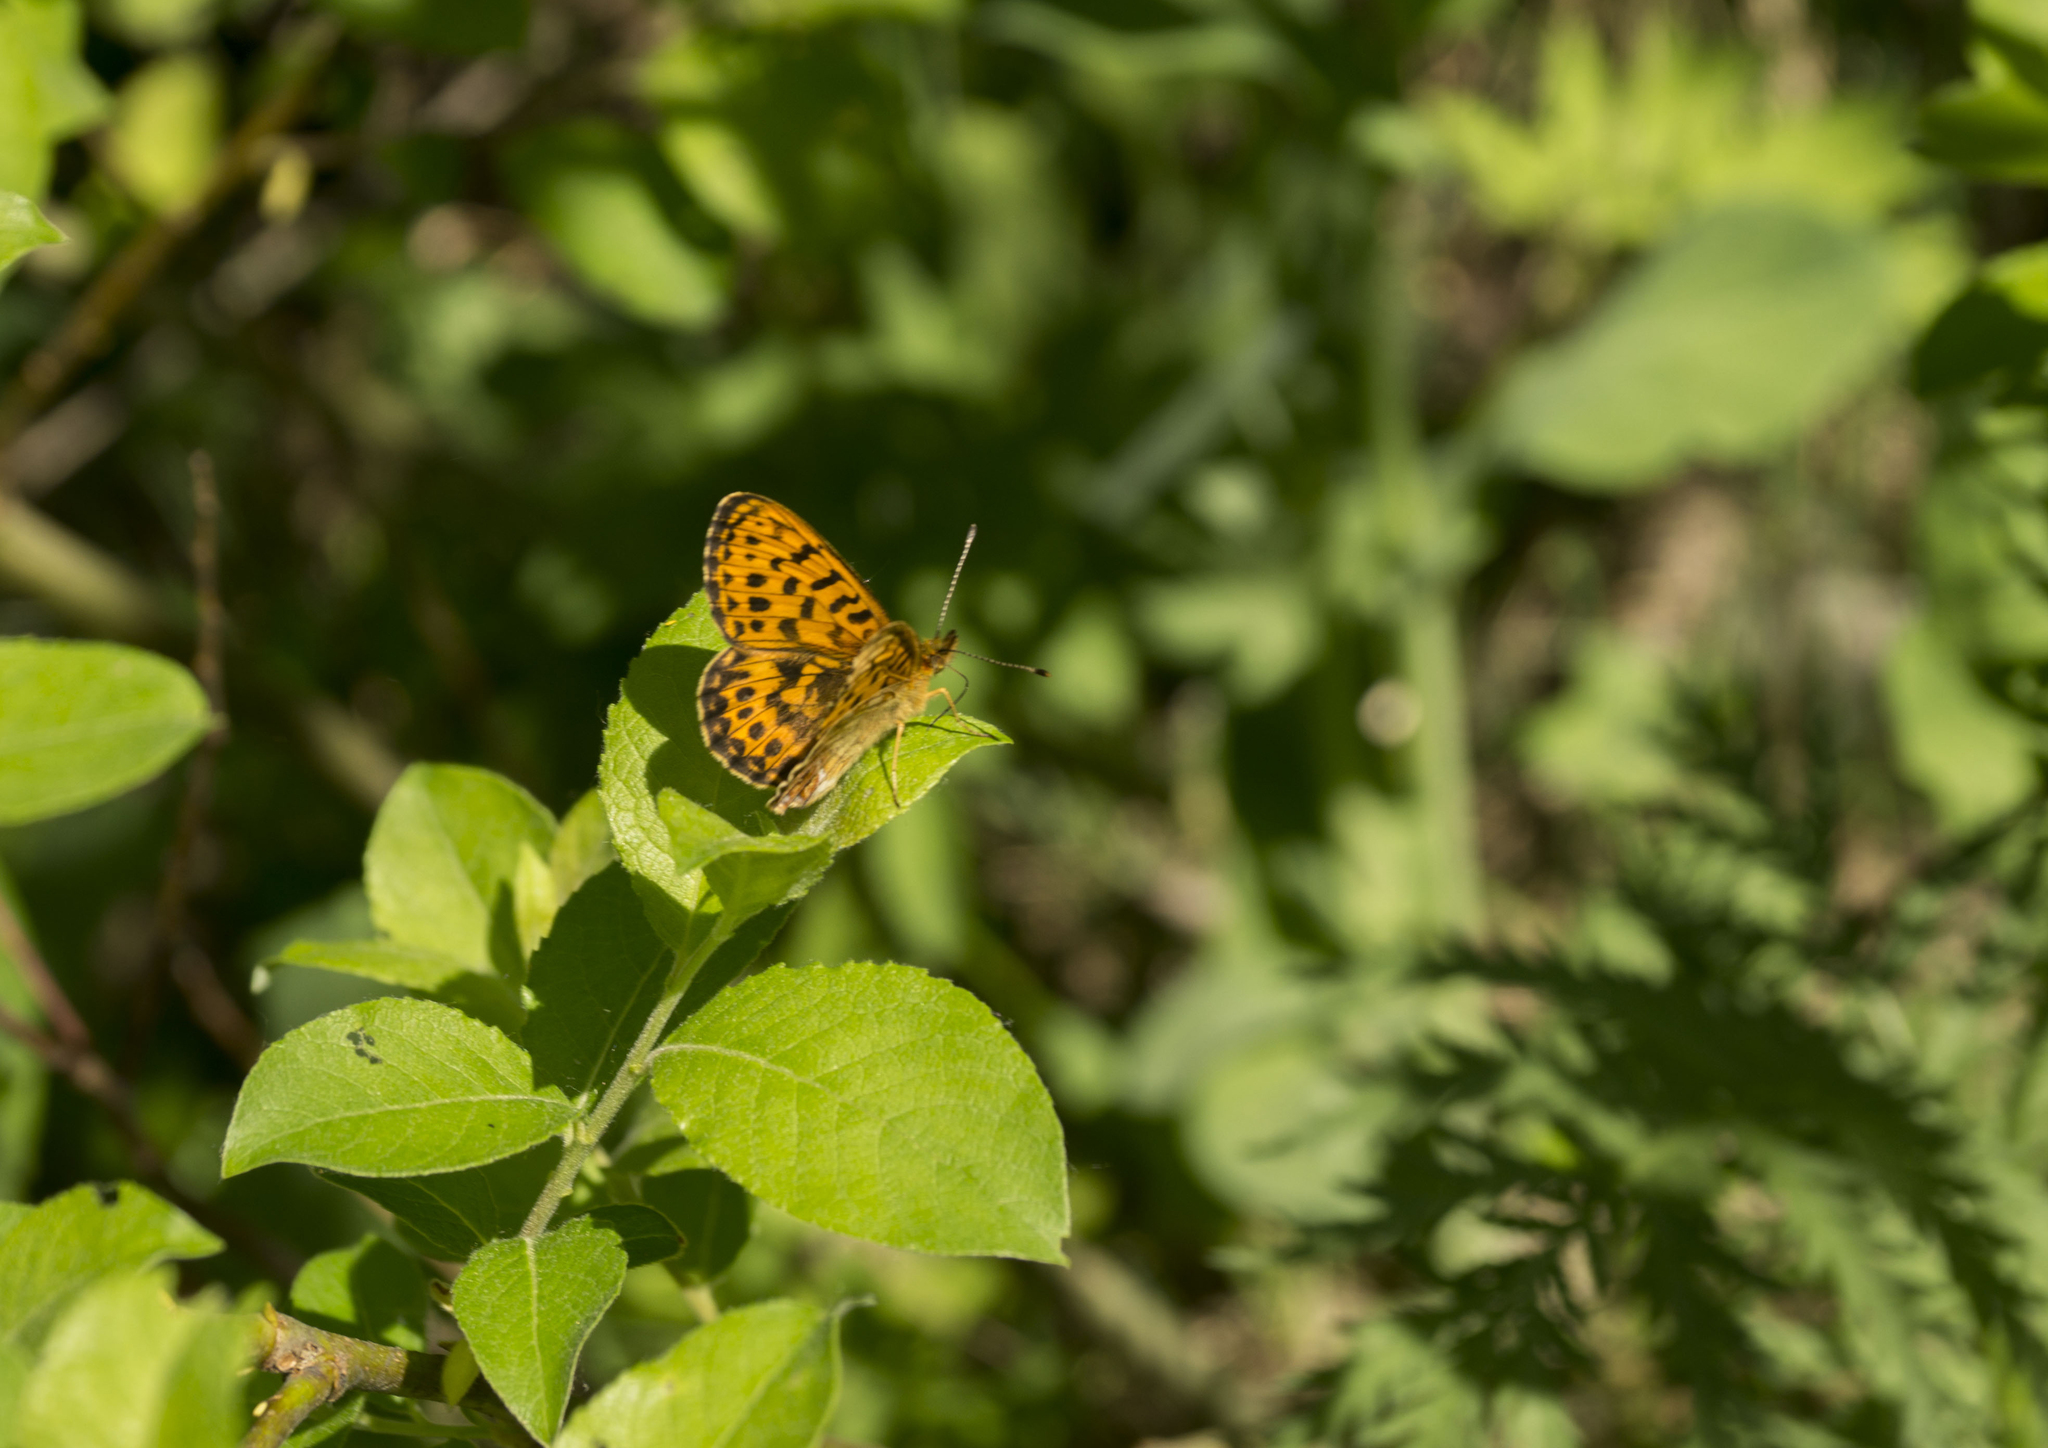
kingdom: Animalia
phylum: Arthropoda
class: Insecta
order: Lepidoptera
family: Nymphalidae
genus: Boloria
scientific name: Boloria thore
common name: Thor's fritillary
